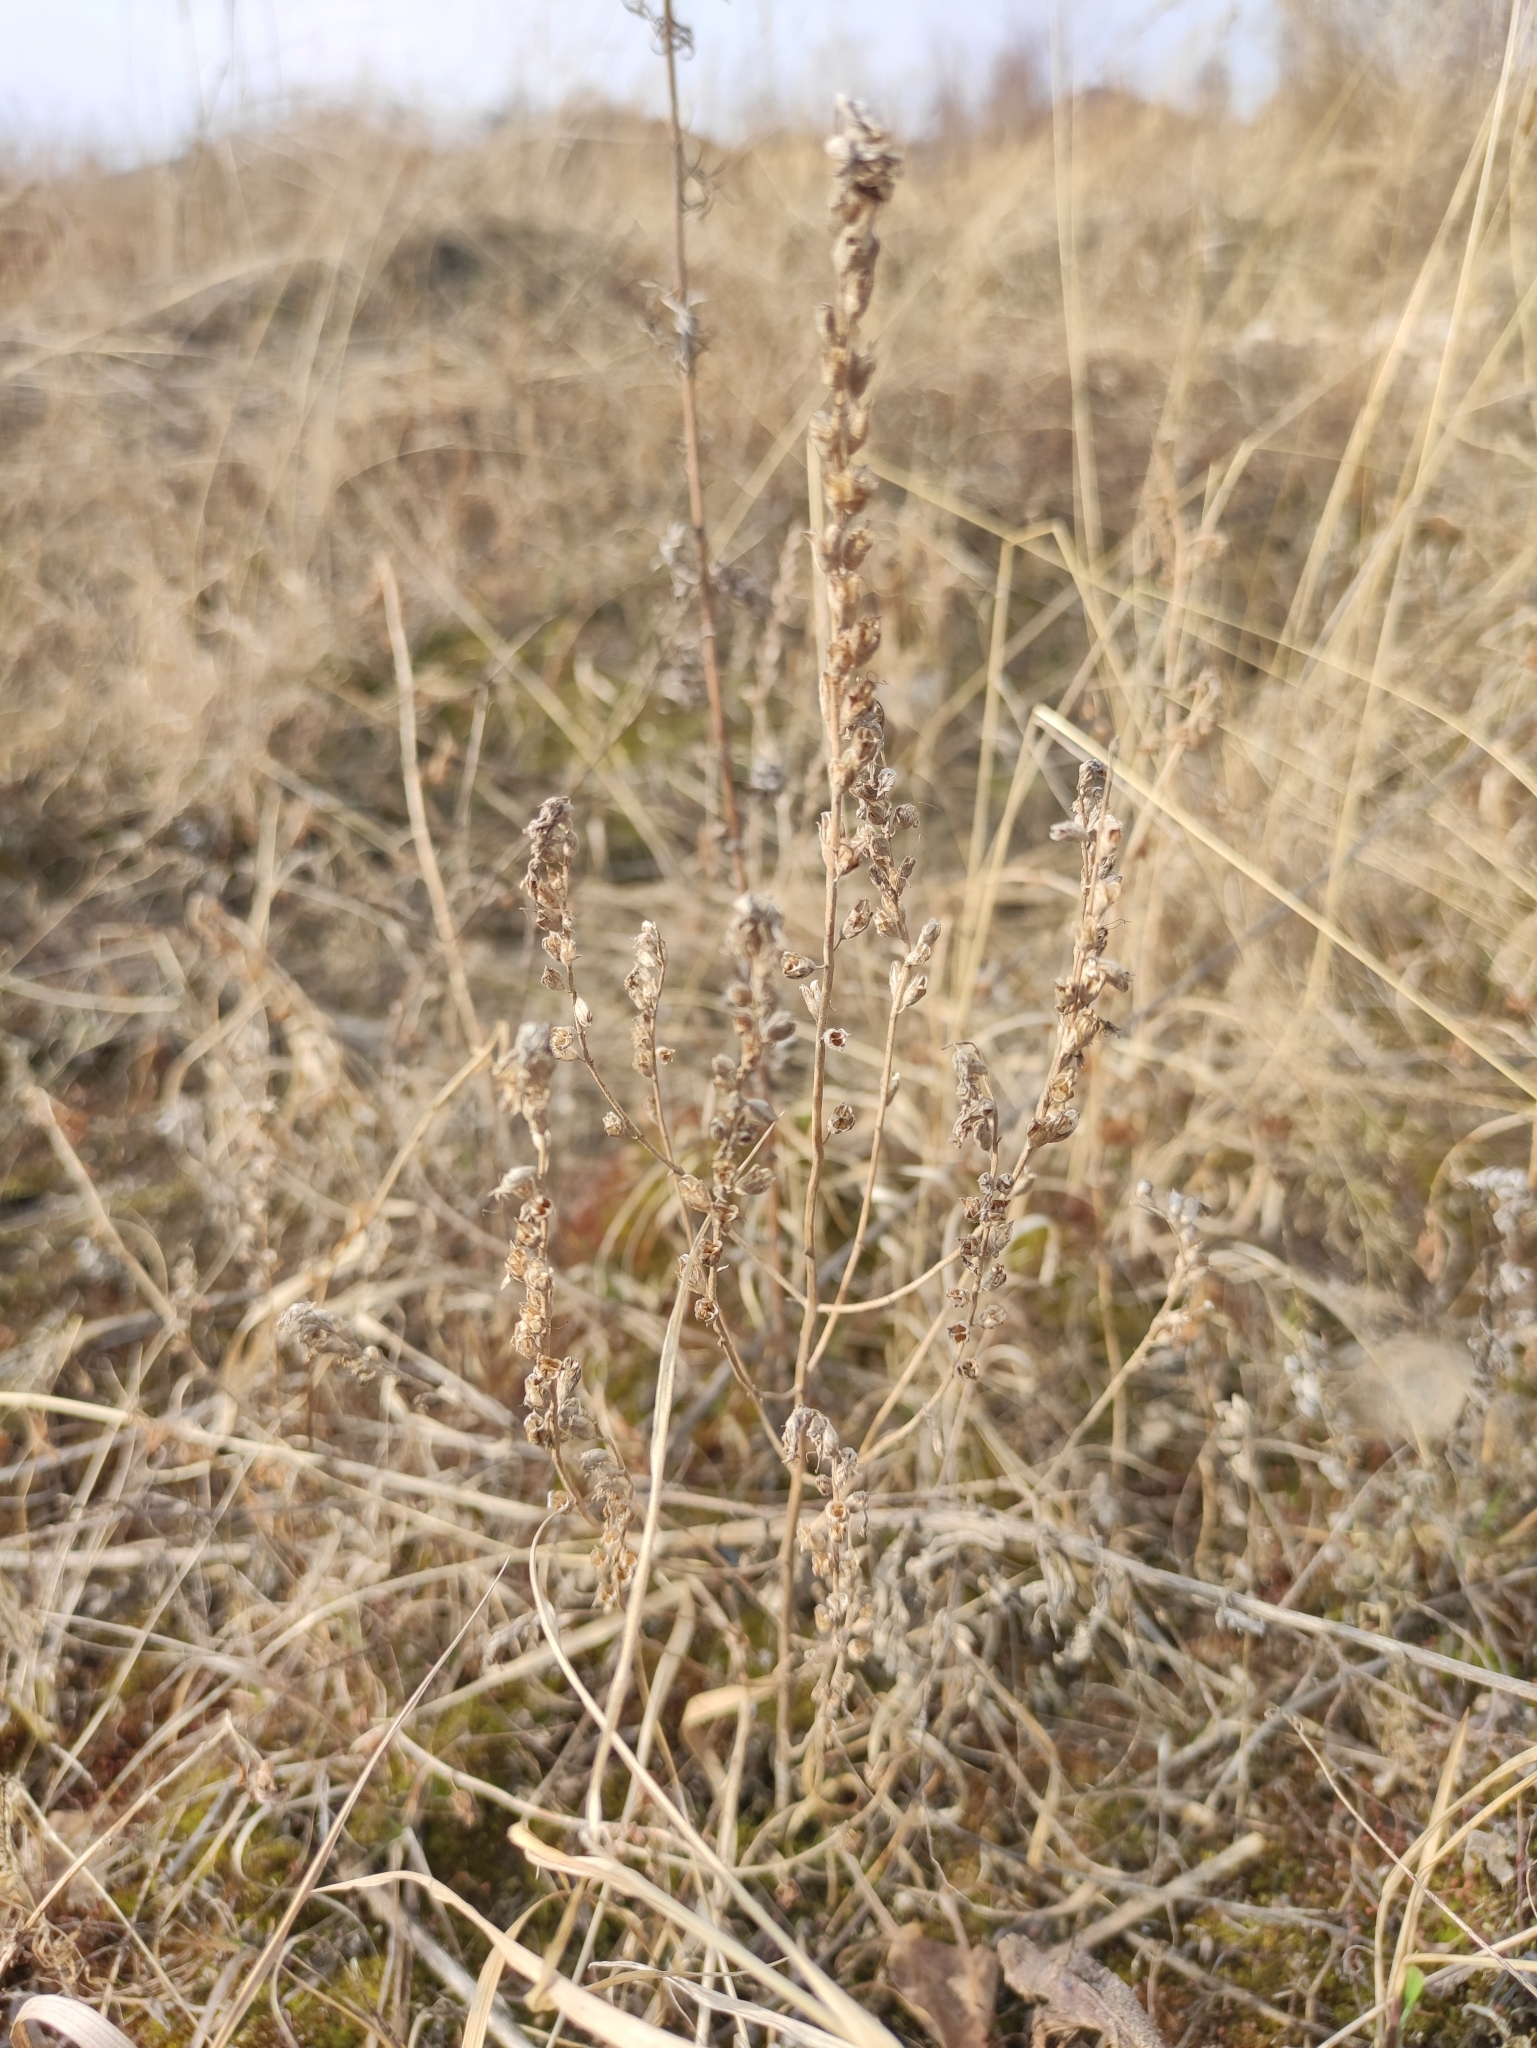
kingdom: Plantae
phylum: Tracheophyta
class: Magnoliopsida
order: Lamiales
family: Orobanchaceae
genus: Odontites
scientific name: Odontites vulgaris
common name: Broomrape
